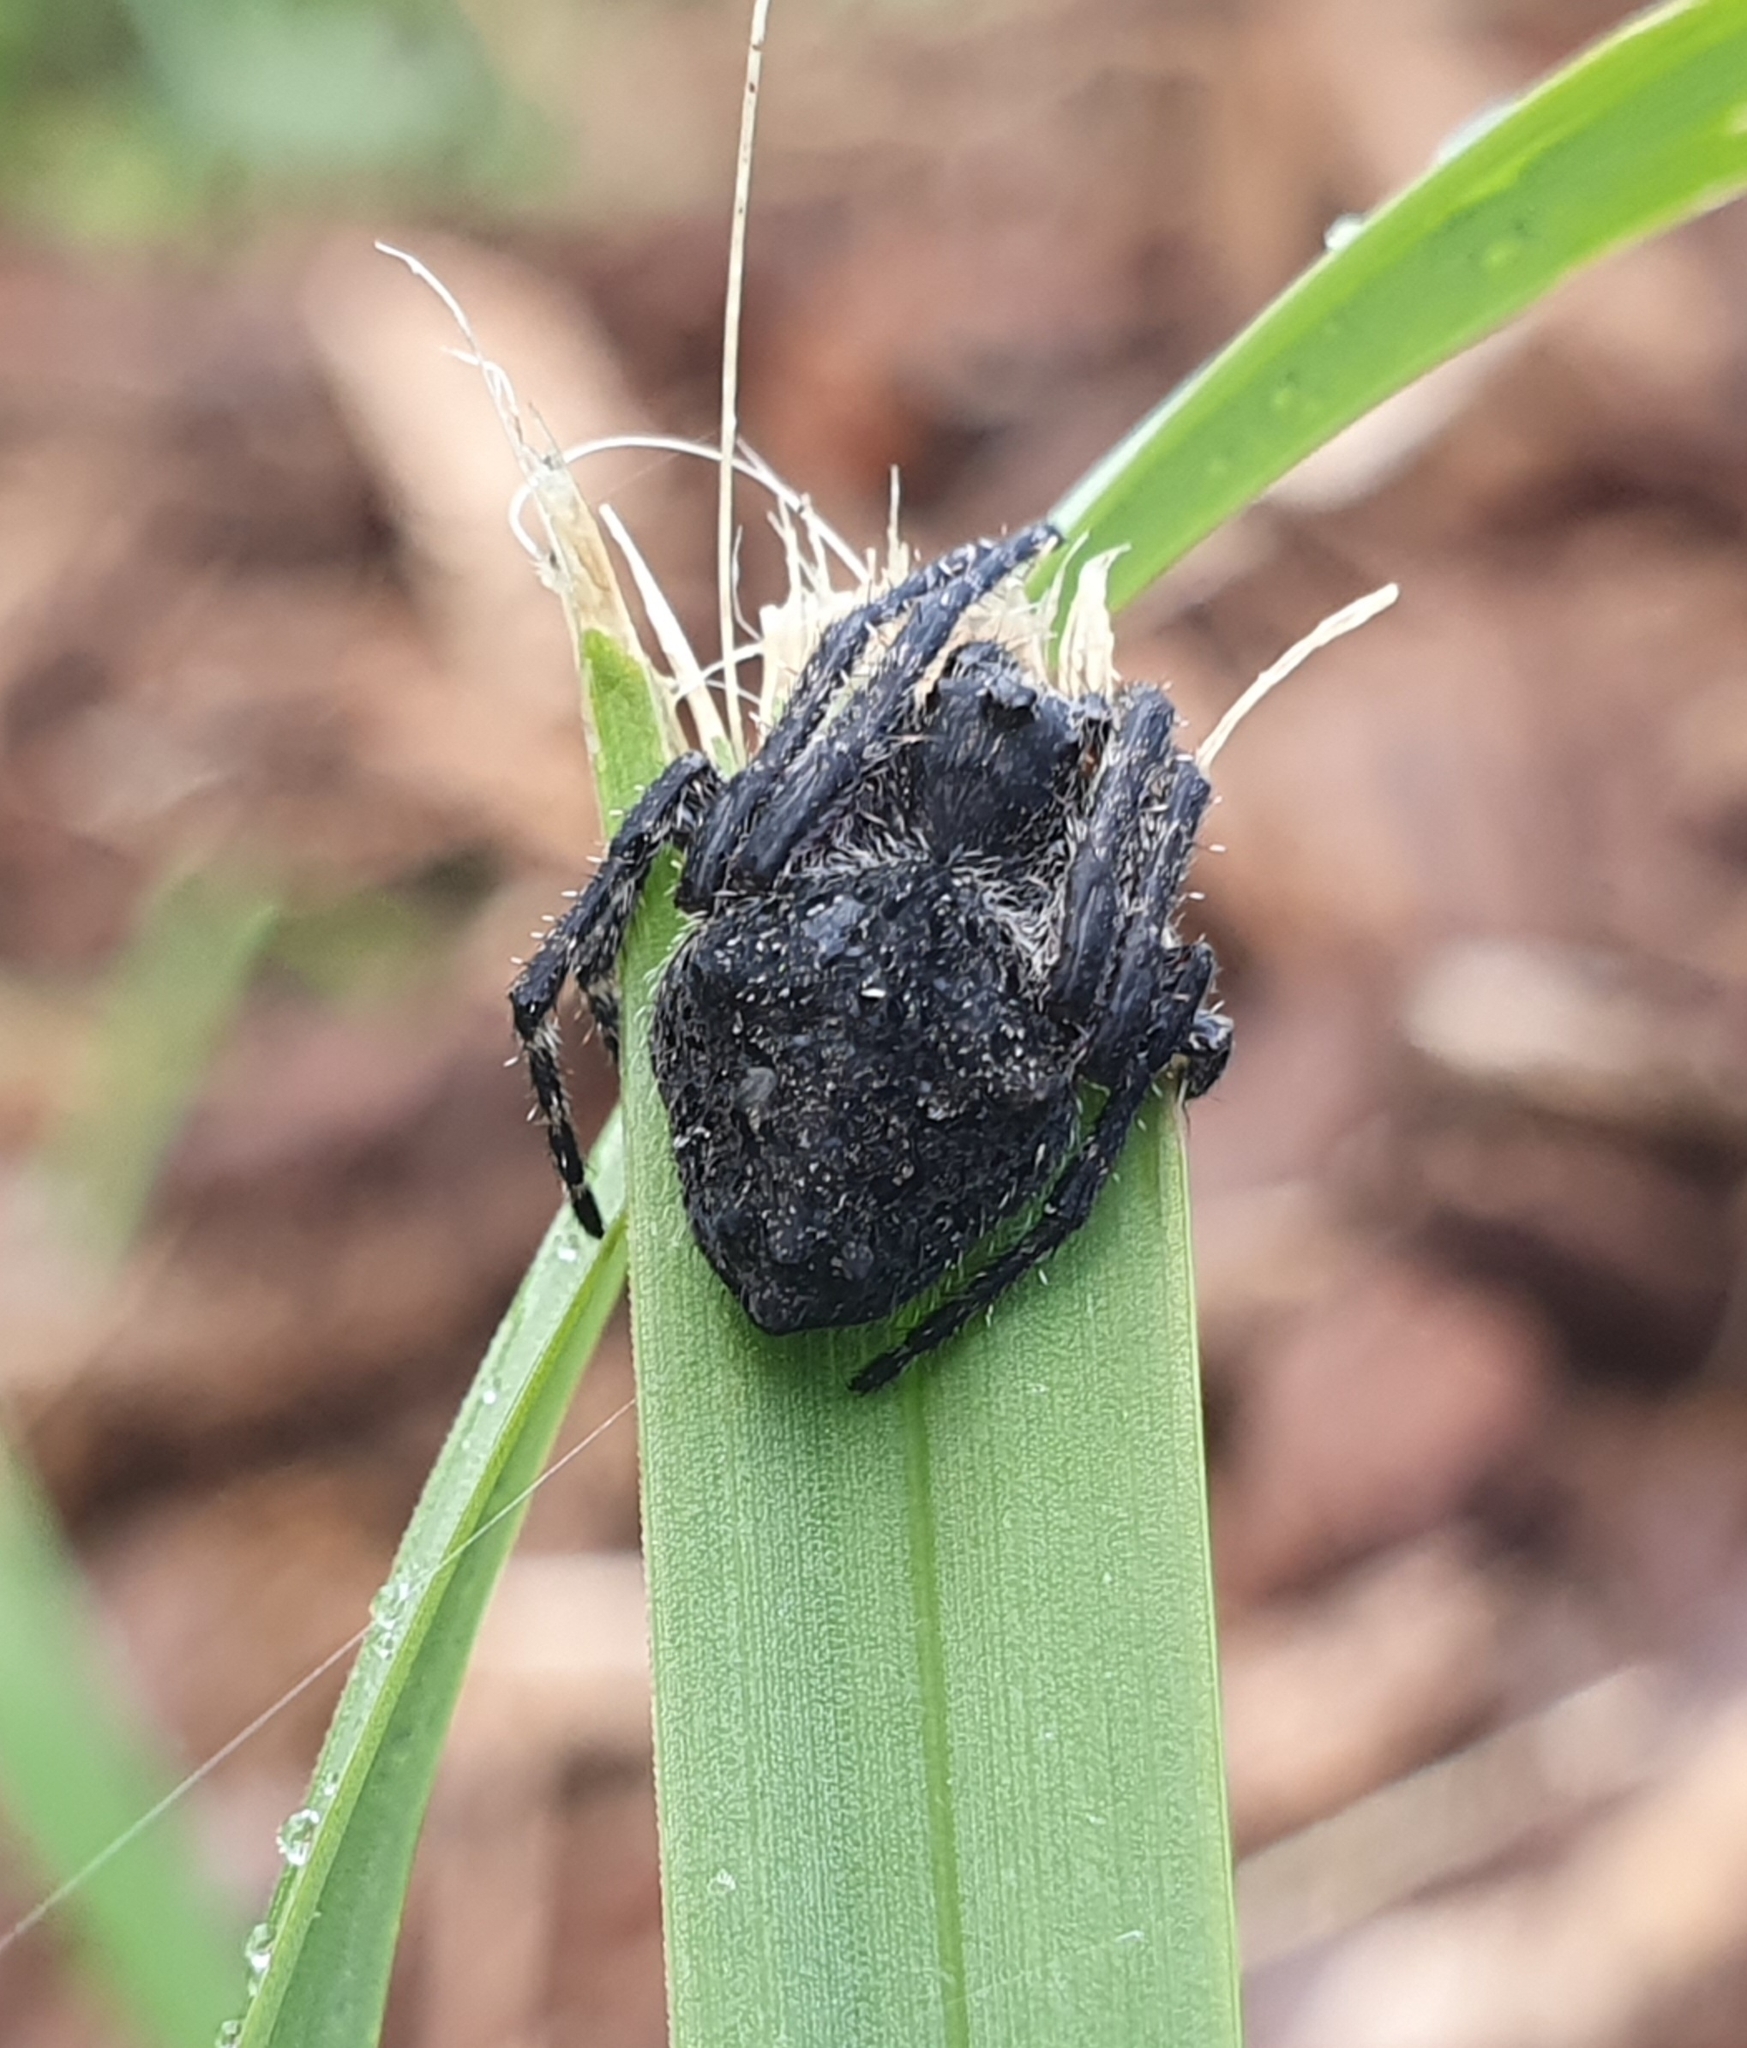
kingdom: Animalia
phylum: Arthropoda
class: Arachnida
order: Araneae
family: Araneidae
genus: Eriophora
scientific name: Eriophora pustulosa
